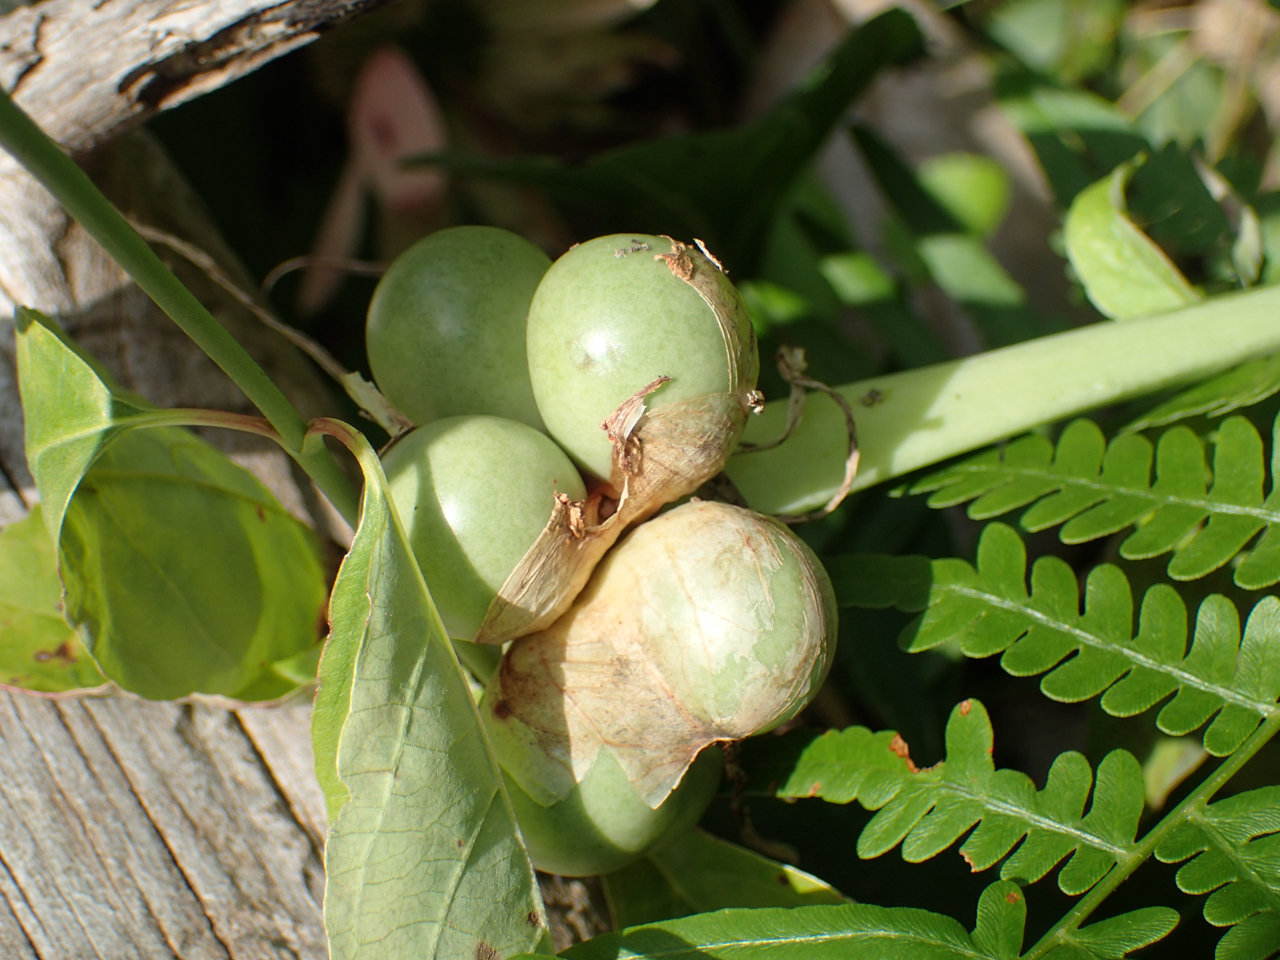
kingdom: Plantae
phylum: Tracheophyta
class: Liliopsida
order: Asparagales
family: Amaryllidaceae
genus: Hymenocallis
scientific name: Hymenocallis occidentalis
